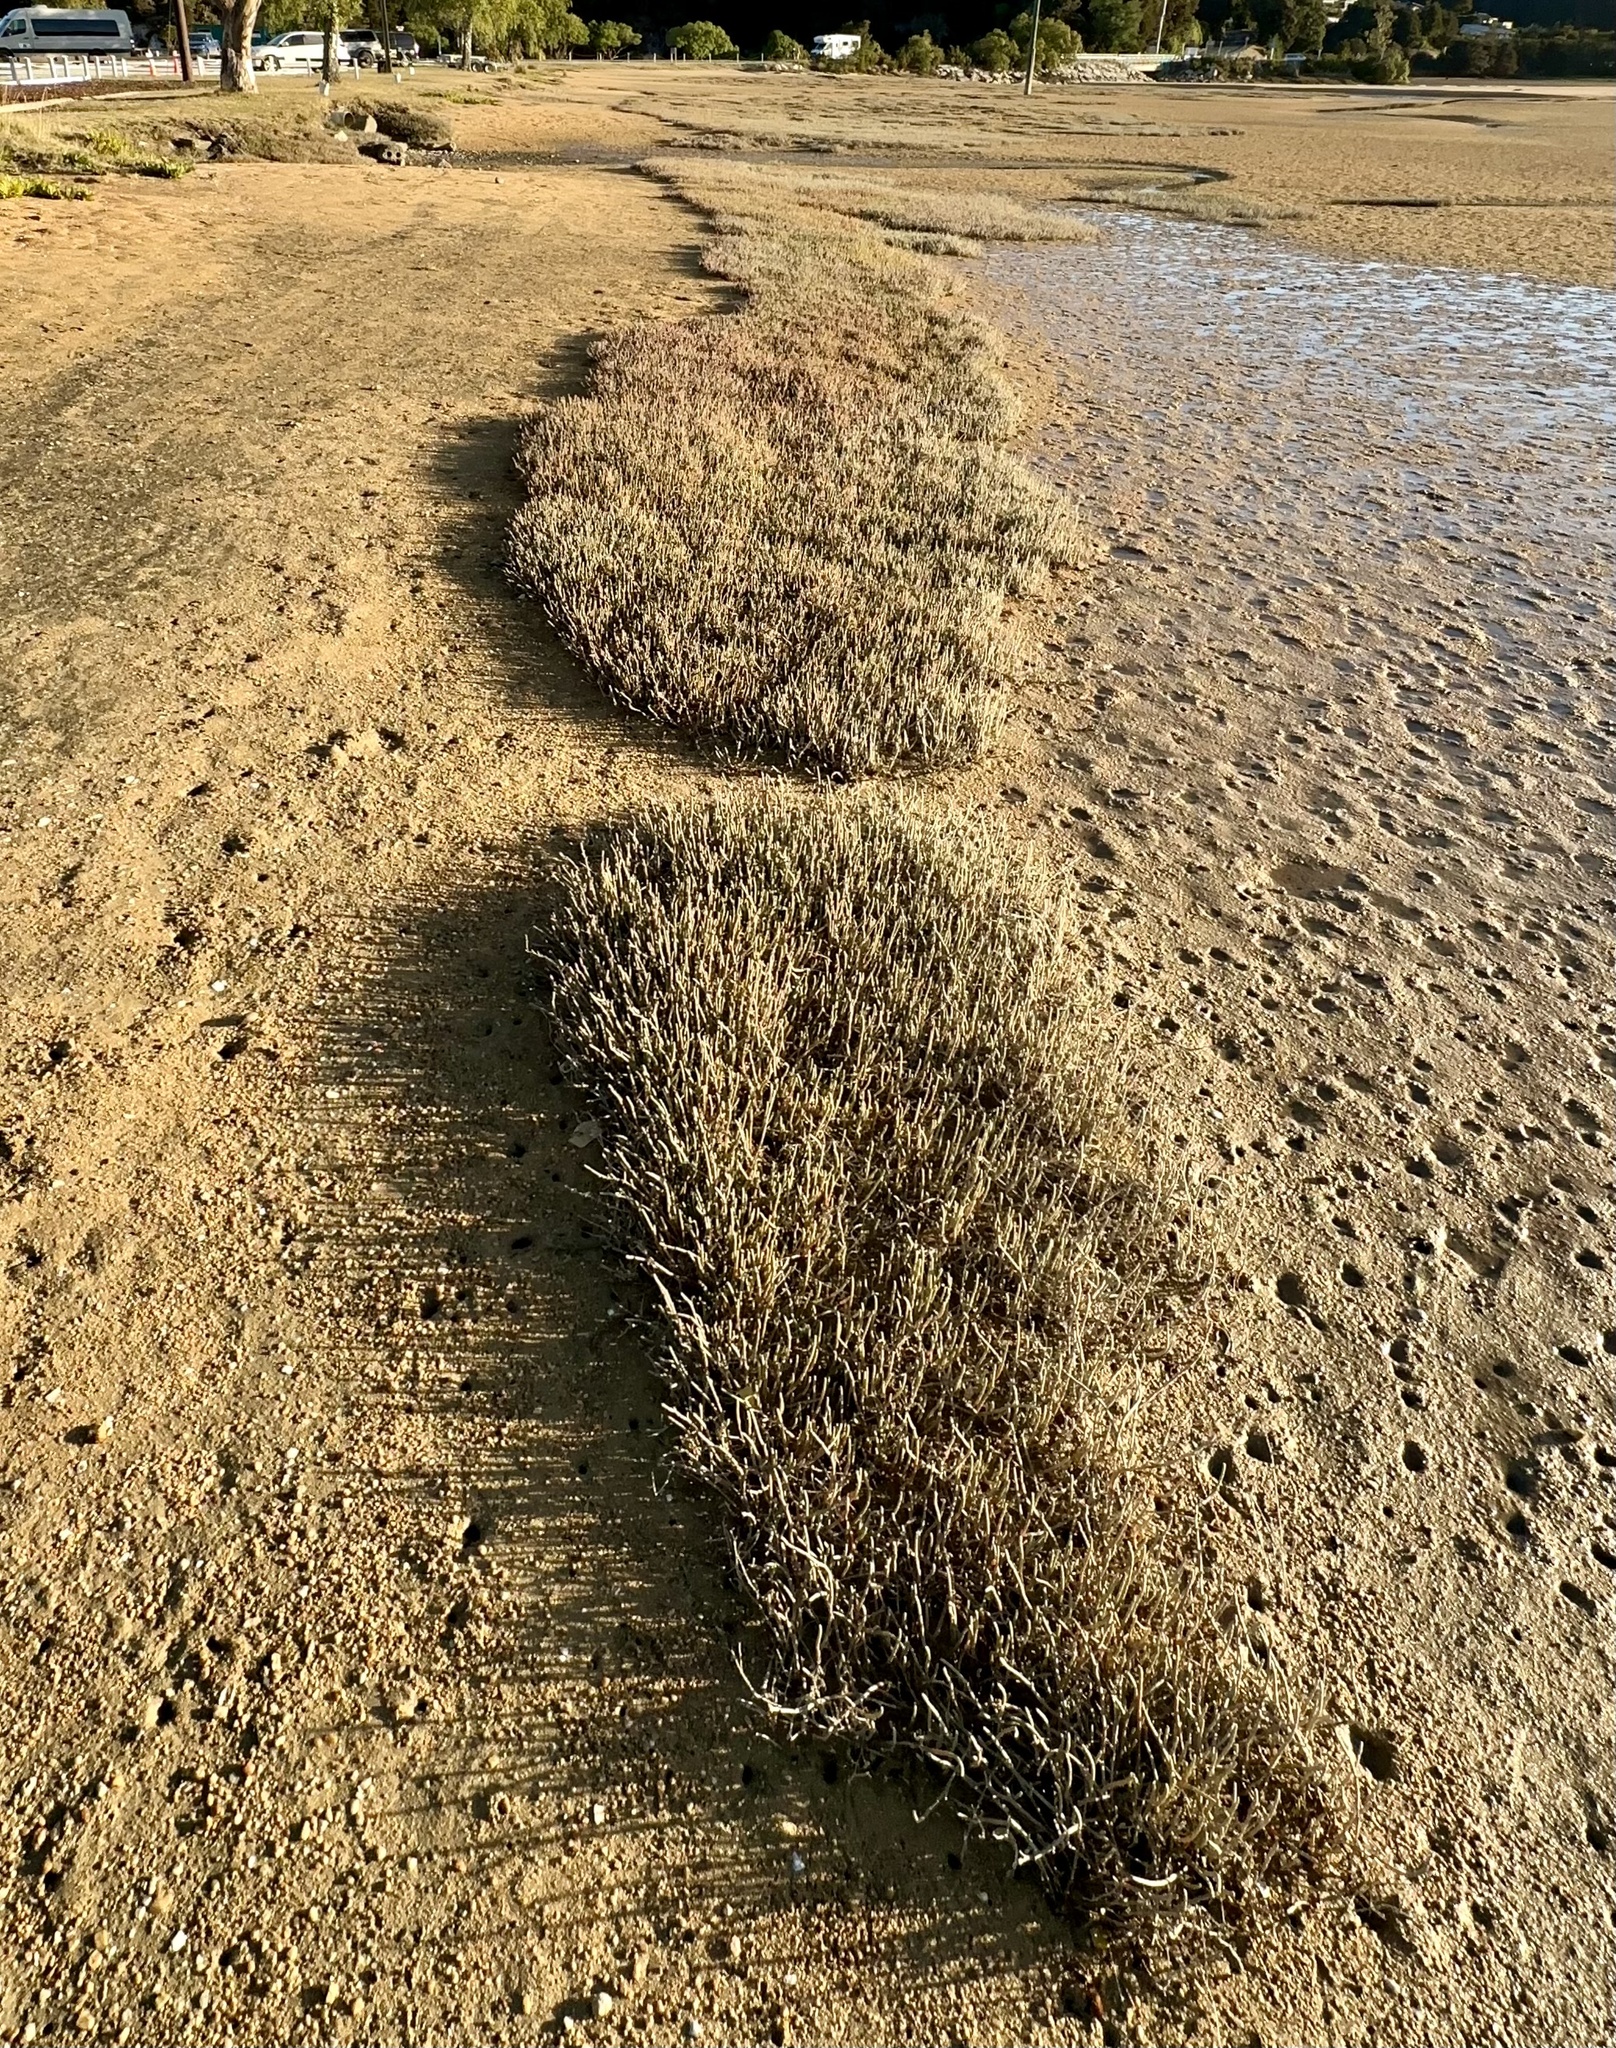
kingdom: Plantae
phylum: Tracheophyta
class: Magnoliopsida
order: Caryophyllales
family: Amaranthaceae
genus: Salicornia
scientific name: Salicornia quinqueflora
